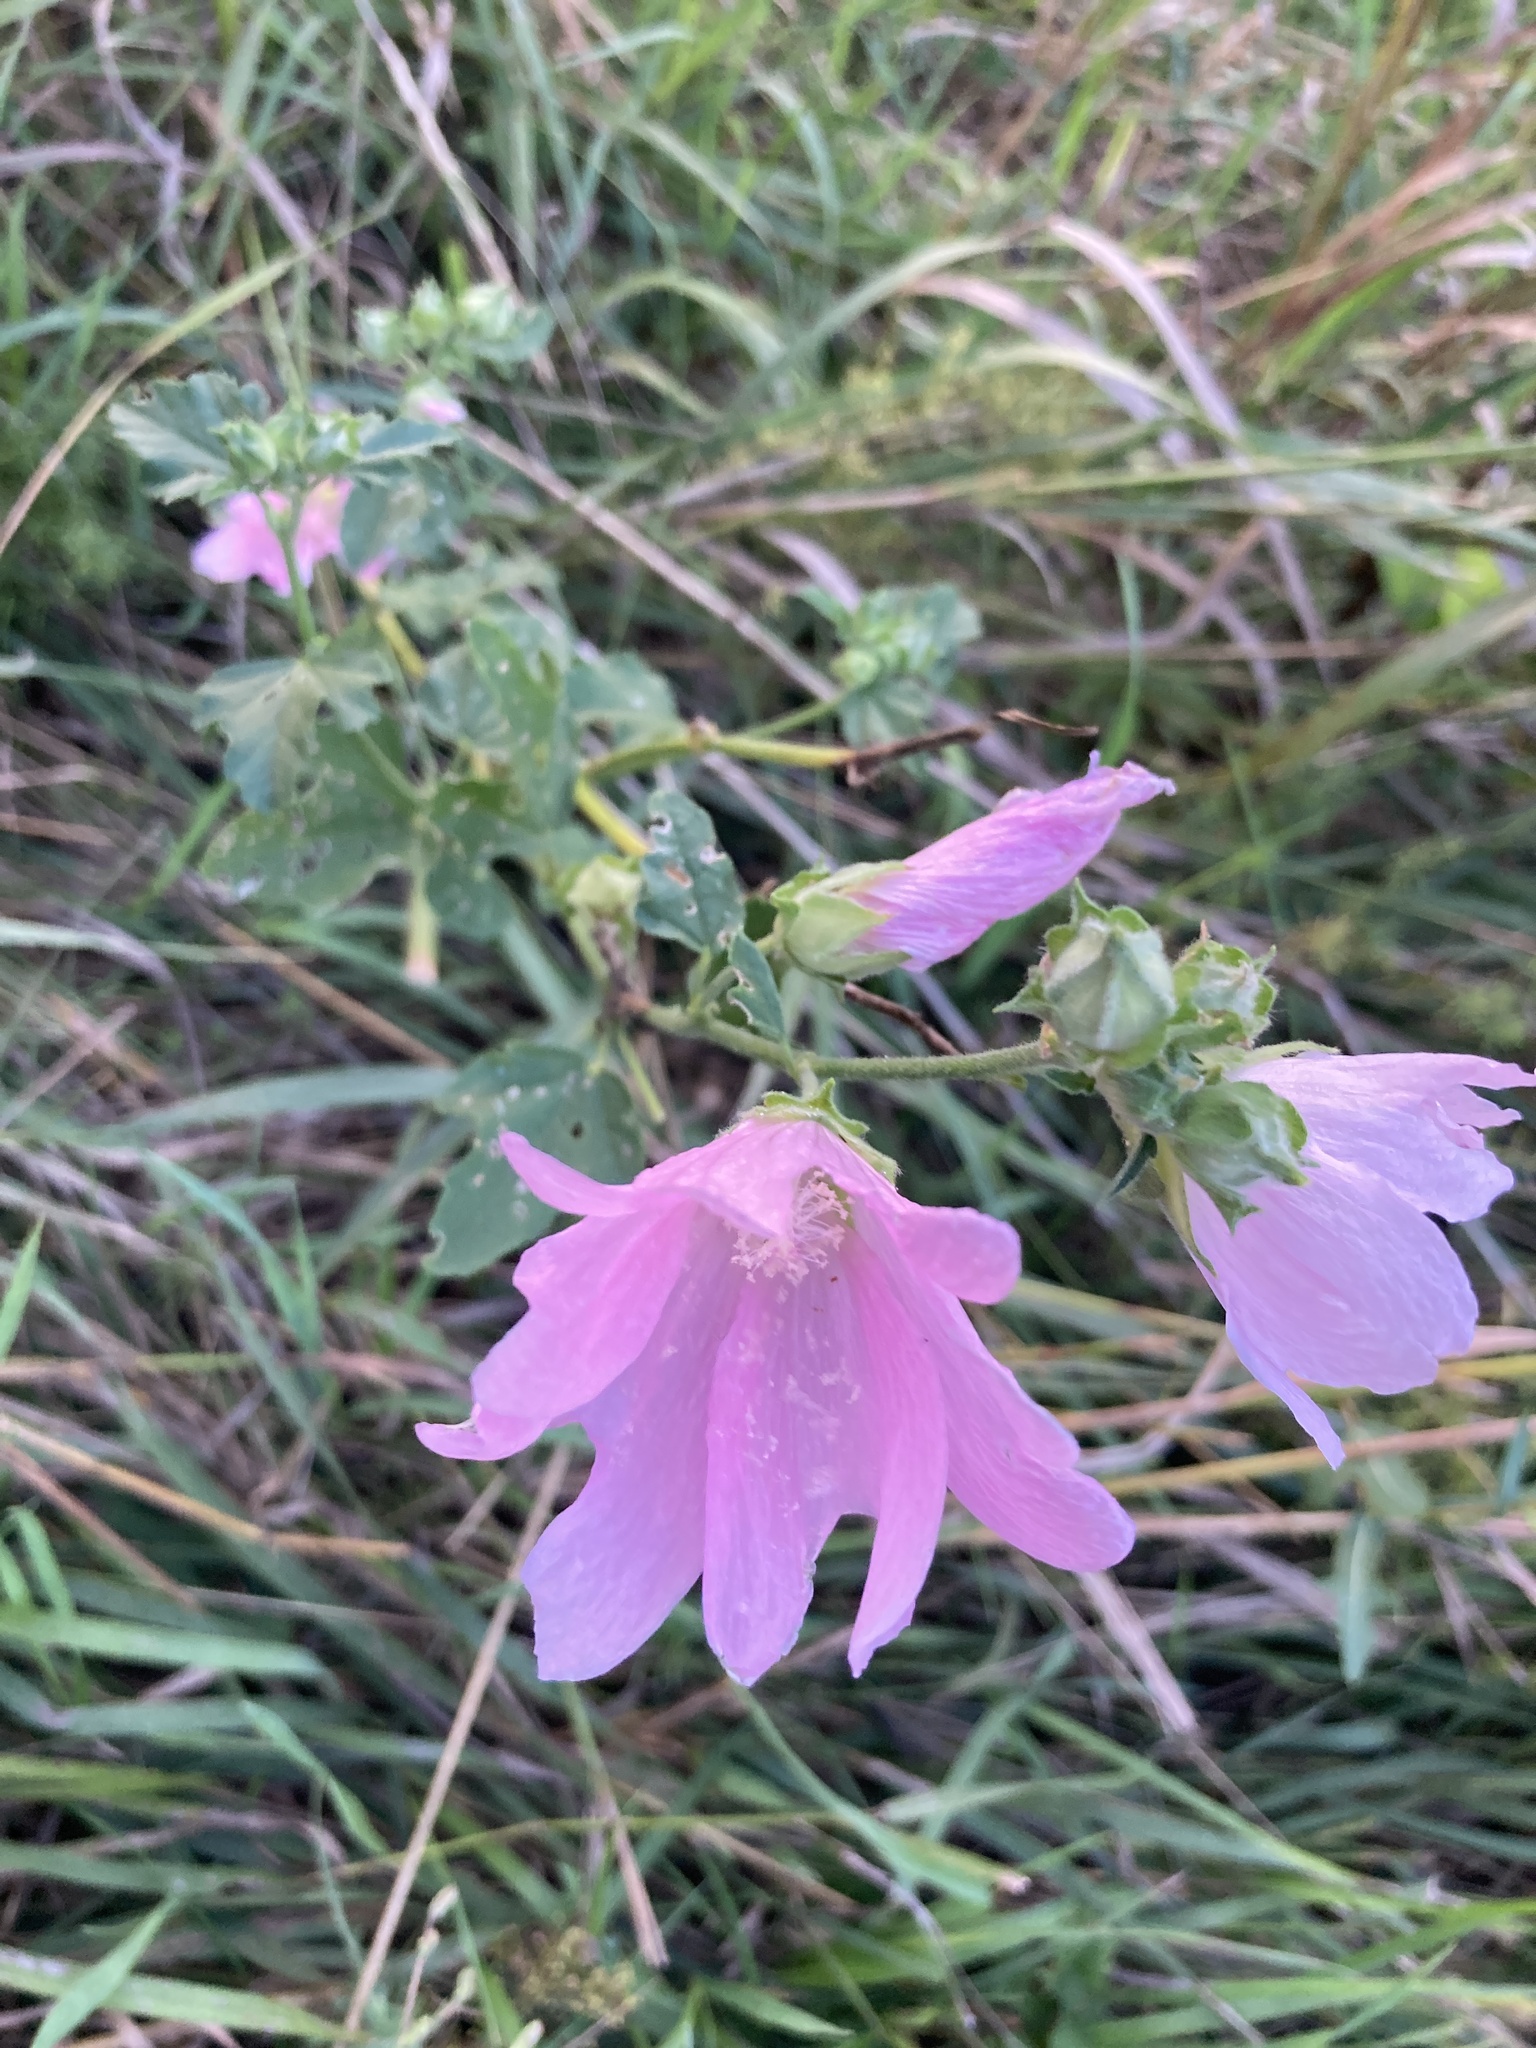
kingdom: Plantae
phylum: Tracheophyta
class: Magnoliopsida
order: Malvales
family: Malvaceae
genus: Malva
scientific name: Malva thuringiaca
